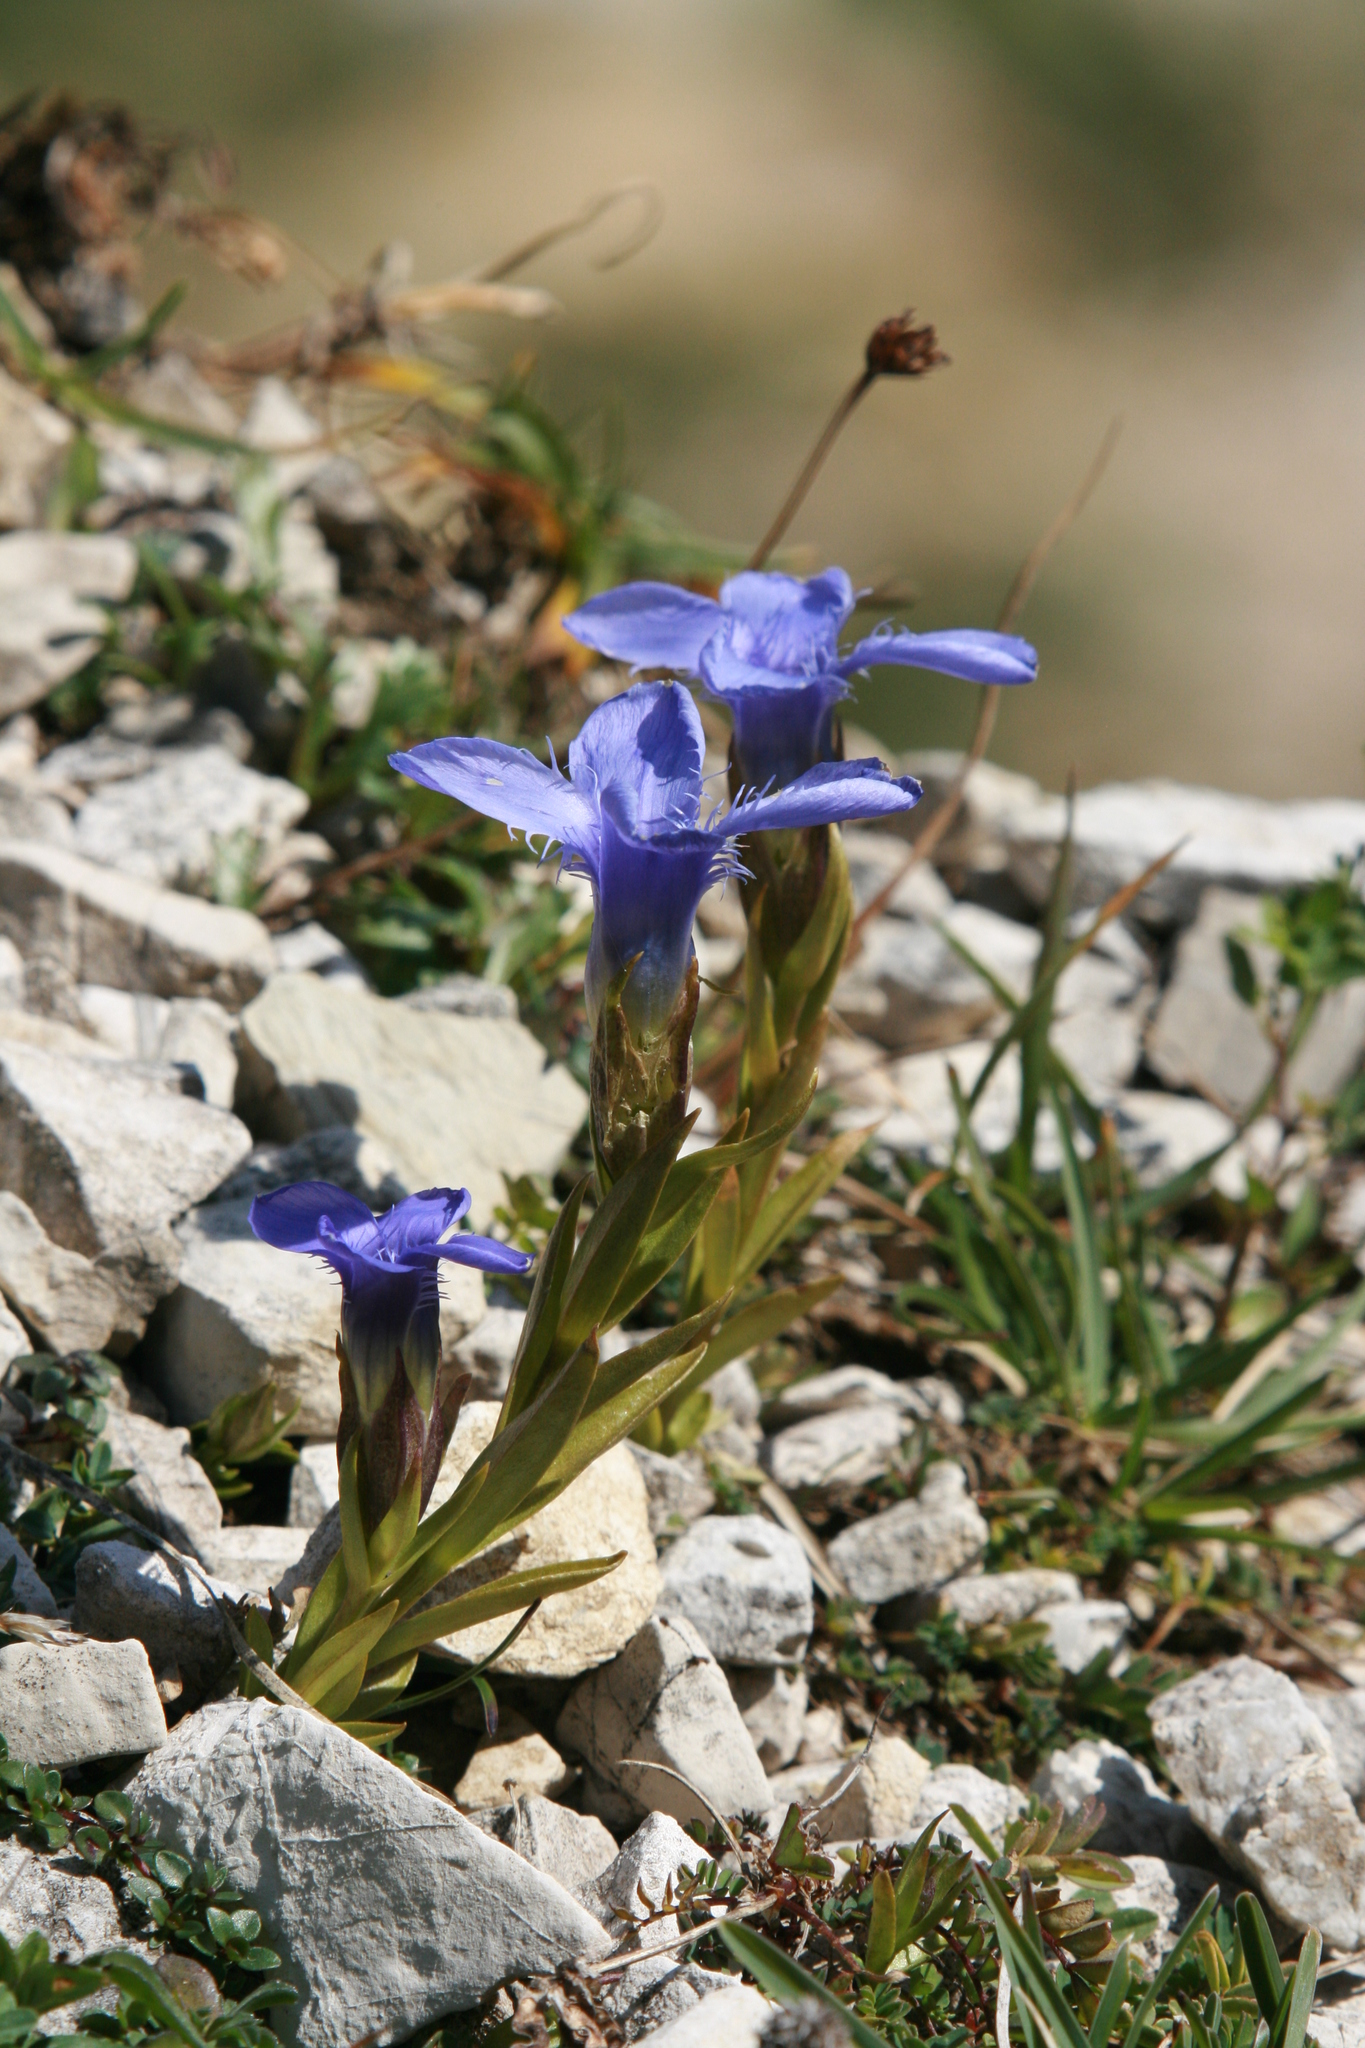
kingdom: Plantae
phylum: Tracheophyta
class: Magnoliopsida
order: Gentianales
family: Gentianaceae
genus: Gentianopsis
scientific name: Gentianopsis ciliata
